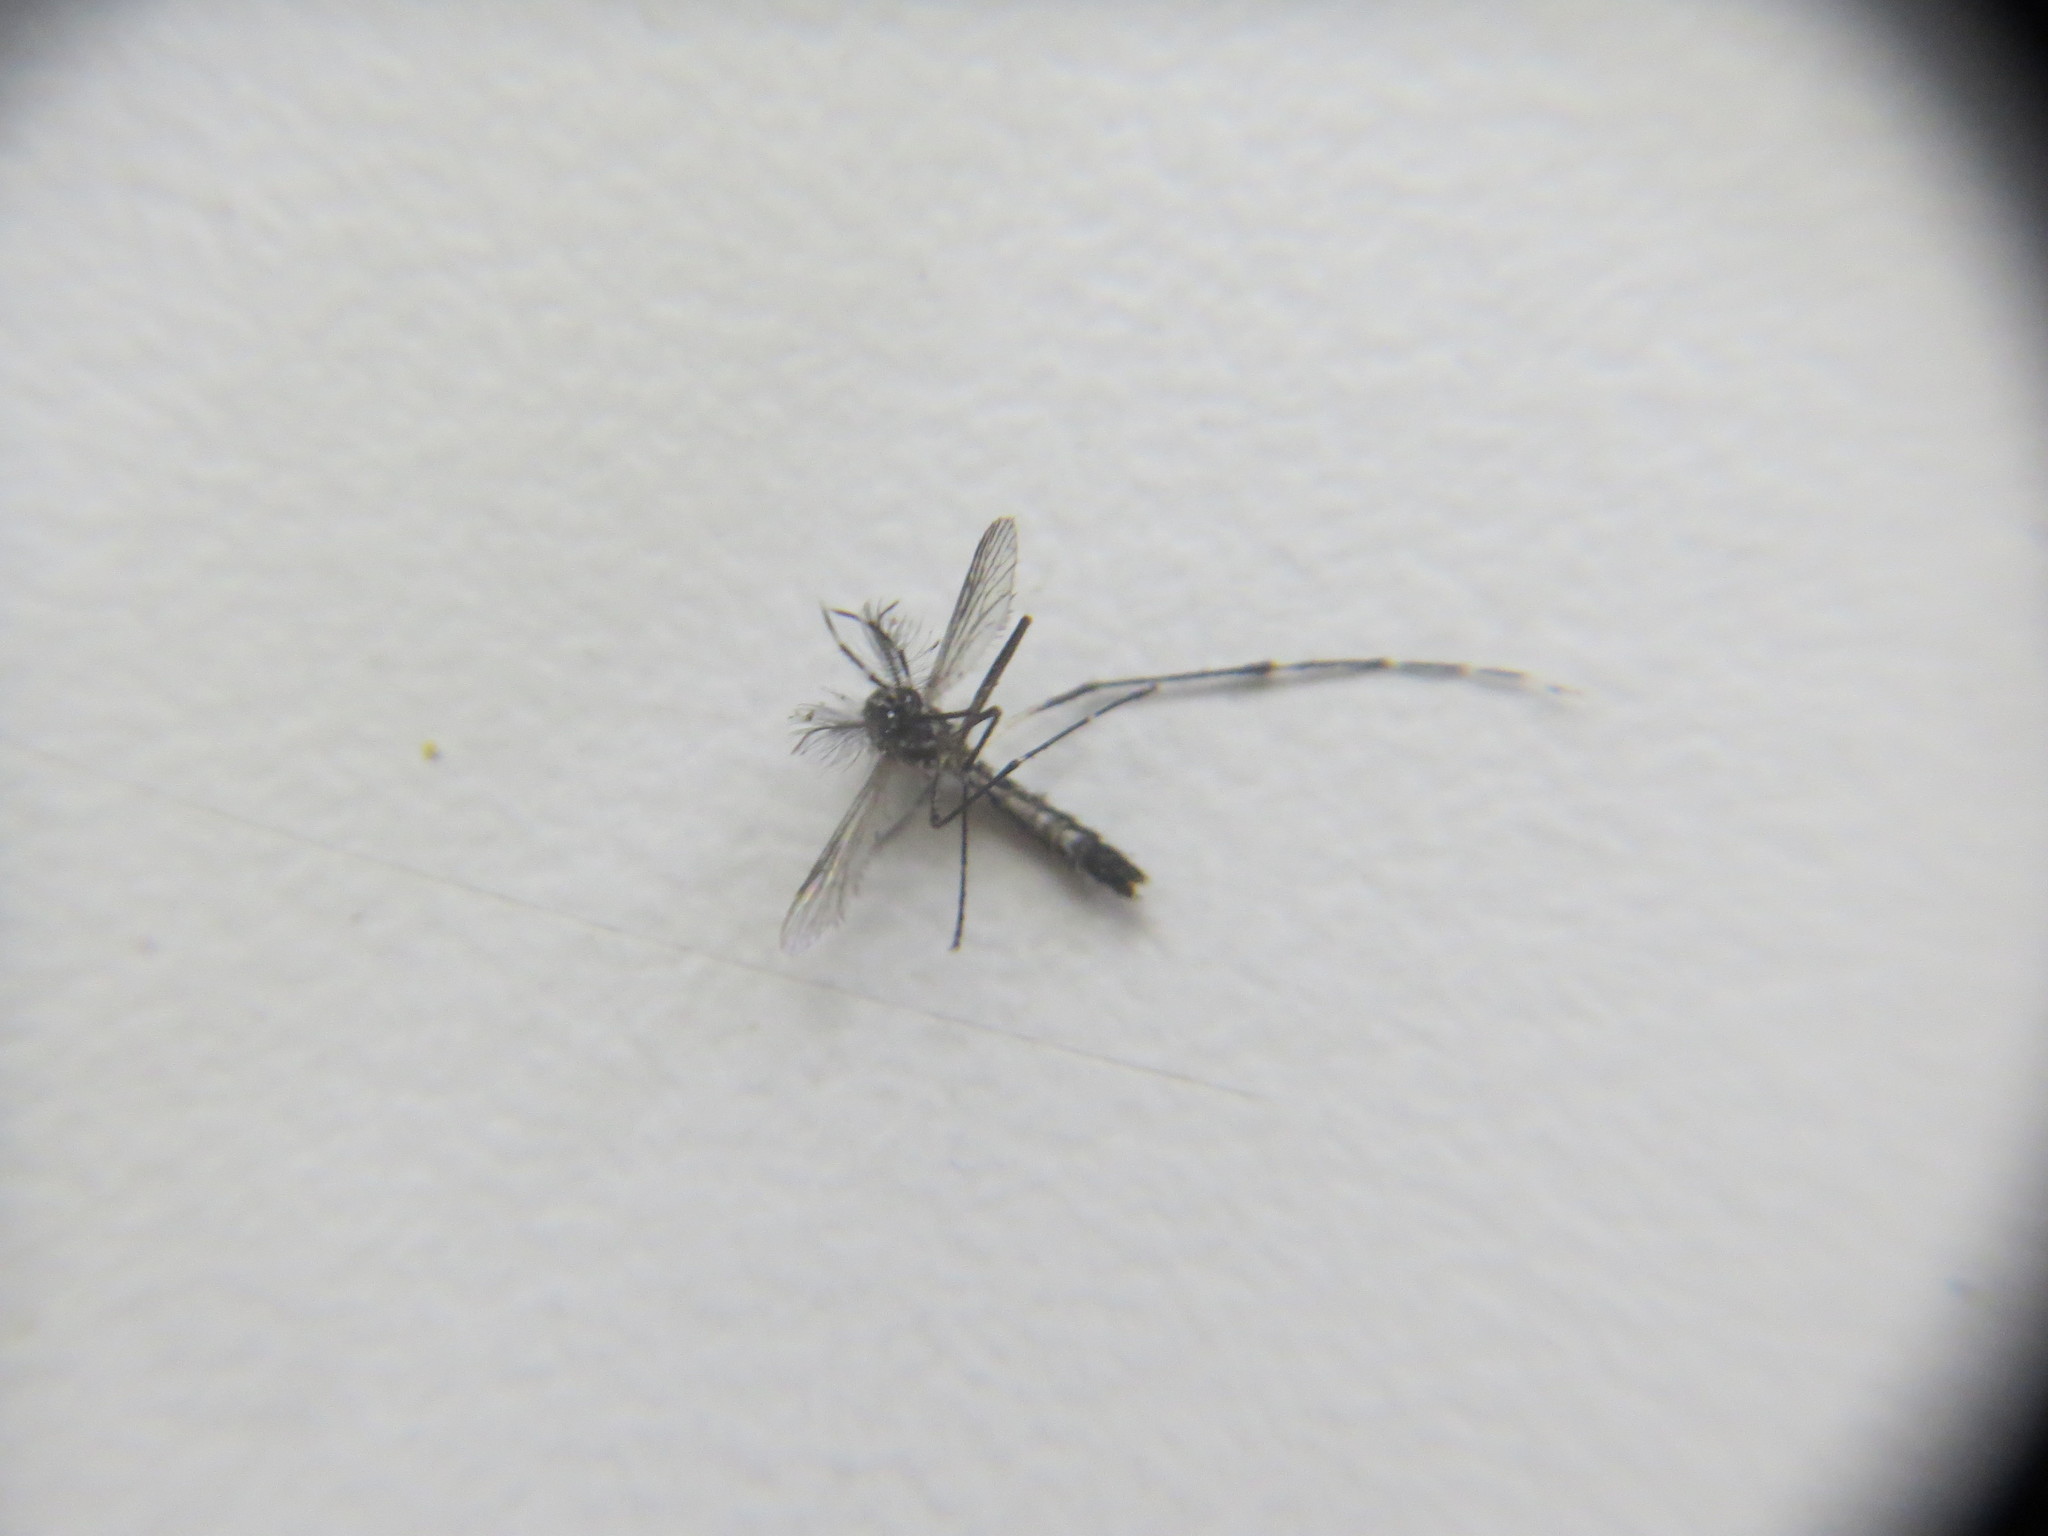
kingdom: Animalia
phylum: Arthropoda
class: Insecta
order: Diptera
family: Culicidae
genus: Aedes
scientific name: Aedes aegypti
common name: Yellow fever mosquito
